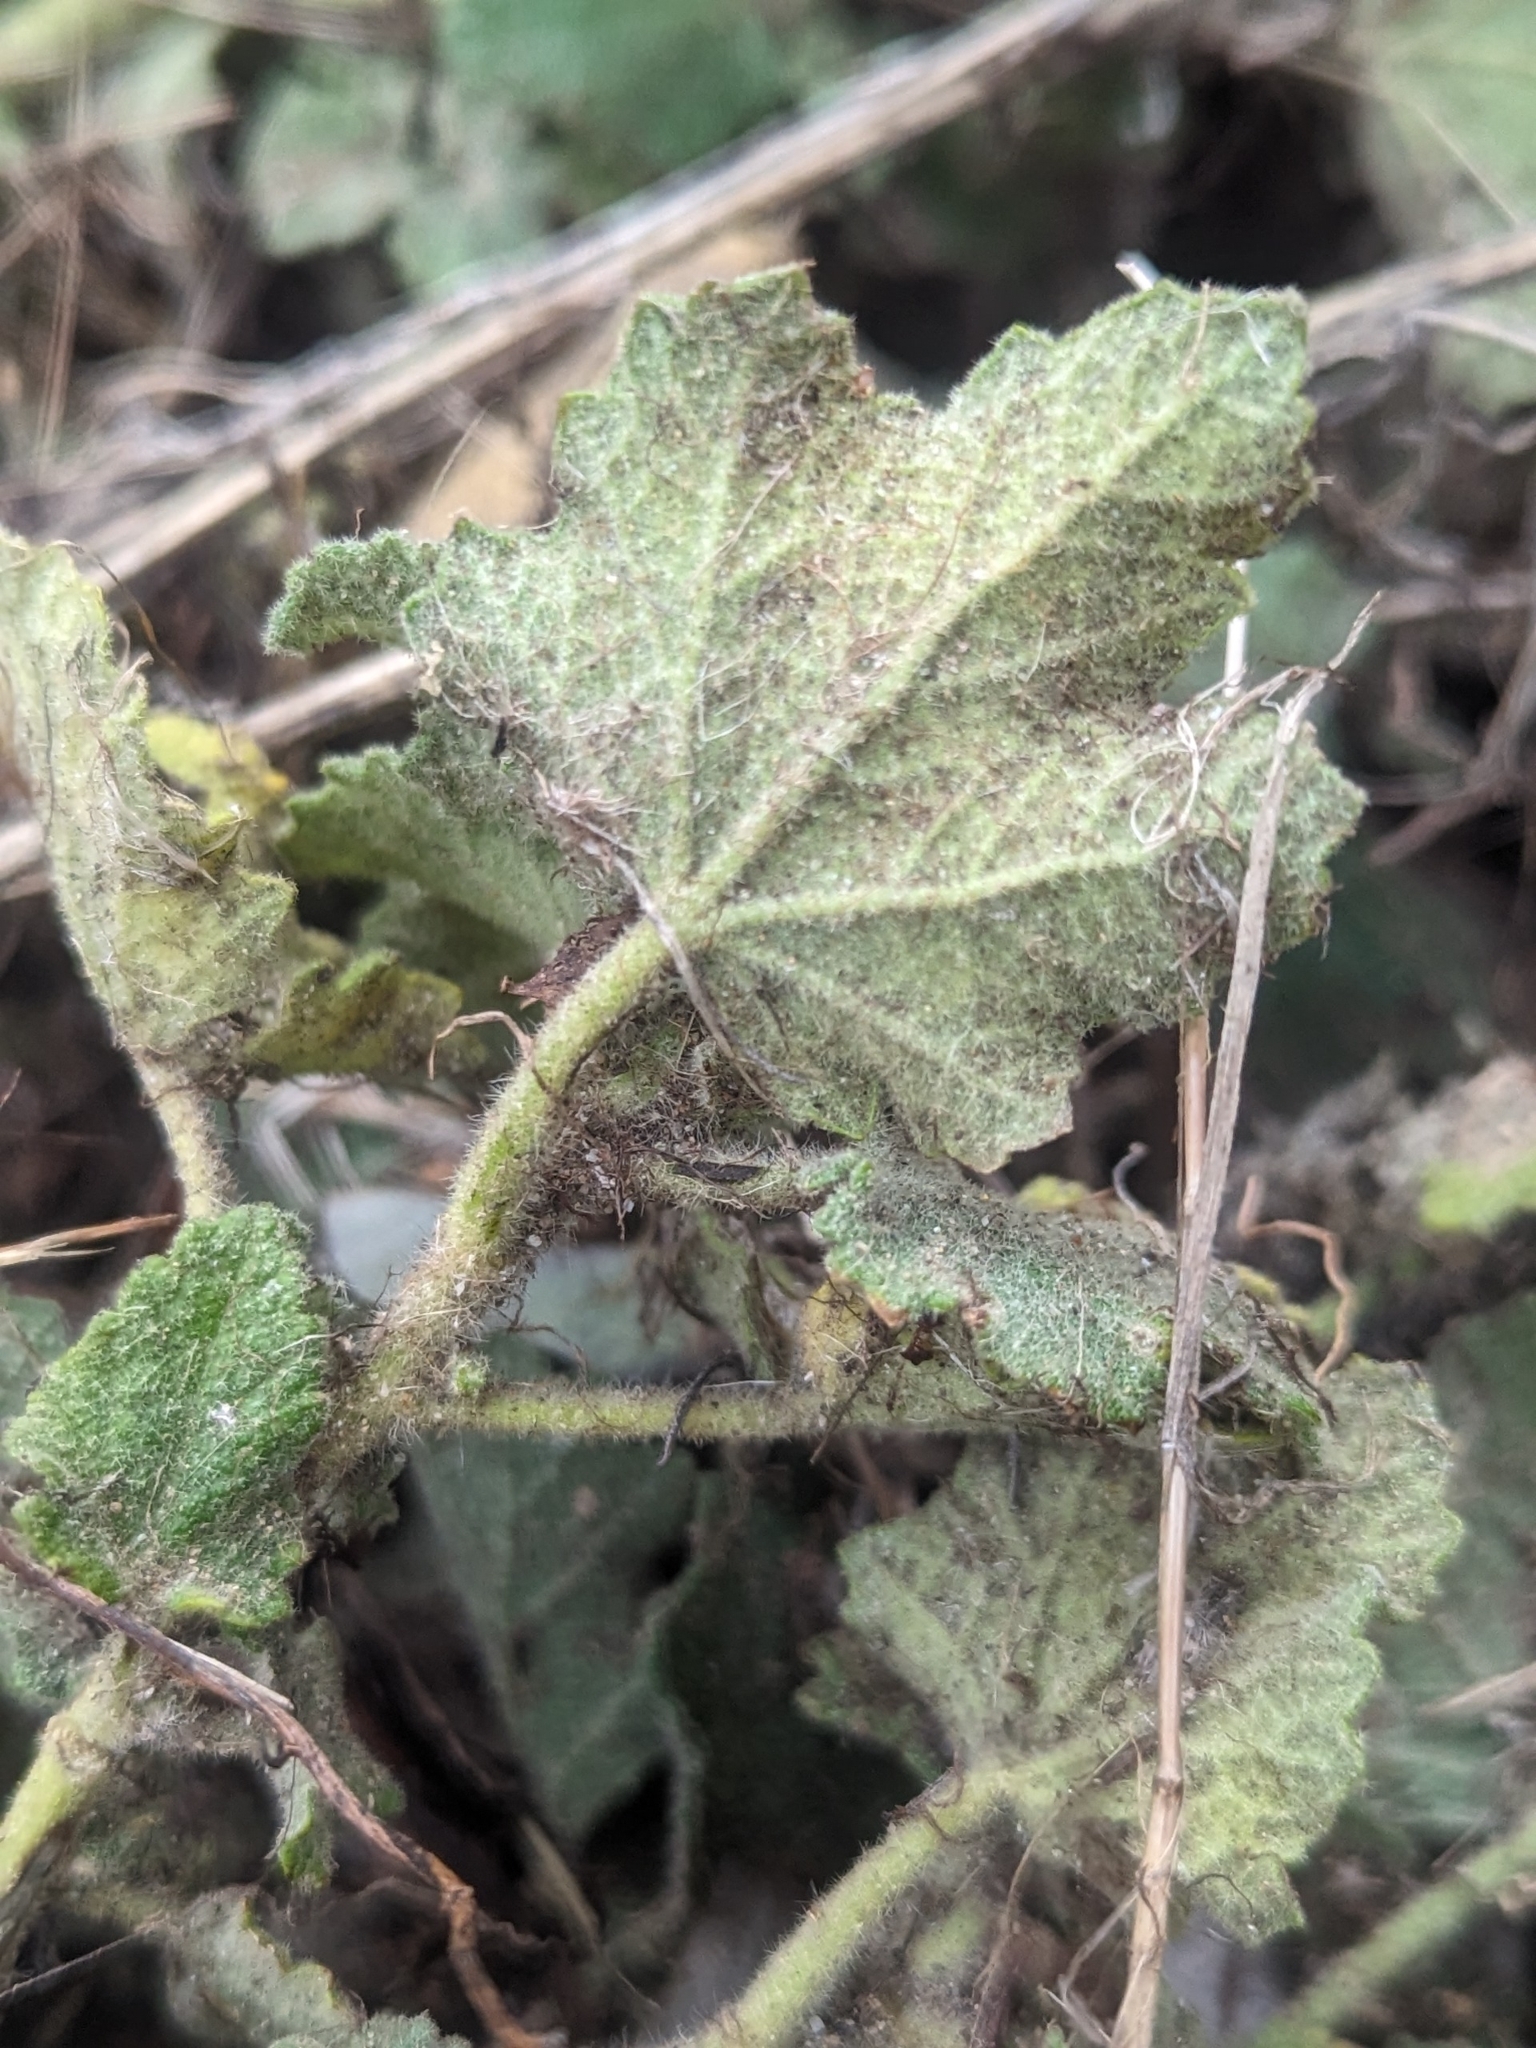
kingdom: Plantae
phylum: Tracheophyta
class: Magnoliopsida
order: Malvales
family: Malvaceae
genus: Malacothamnus
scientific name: Malacothamnus lucianus
